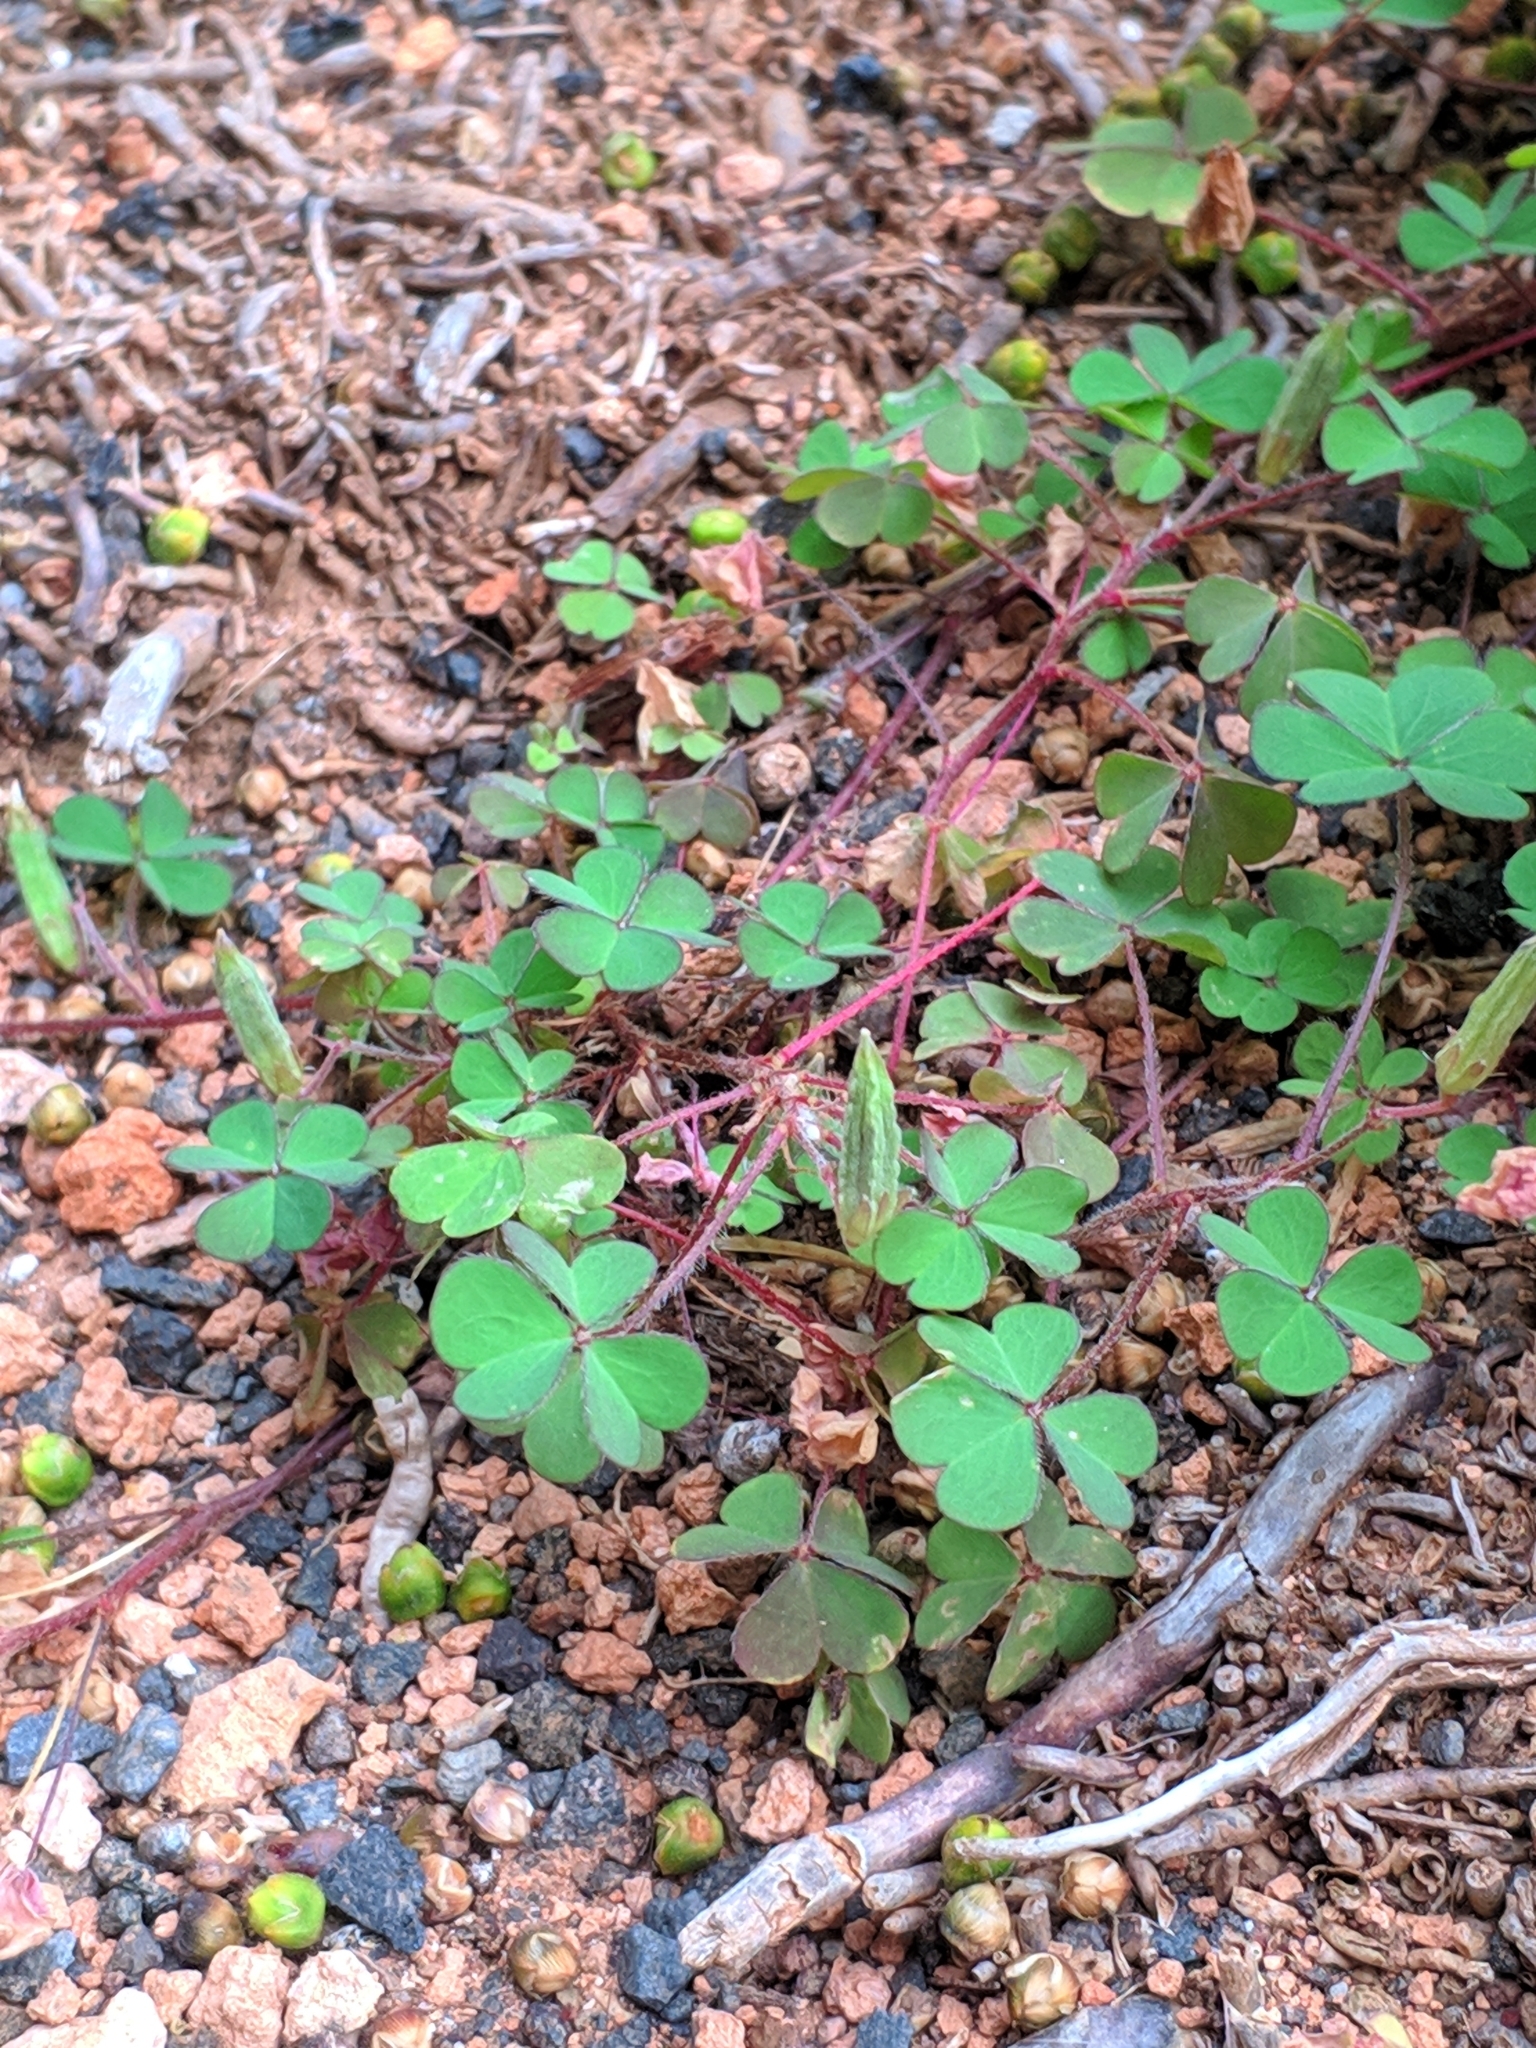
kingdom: Plantae
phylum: Tracheophyta
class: Magnoliopsida
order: Oxalidales
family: Oxalidaceae
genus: Oxalis
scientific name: Oxalis corniculata
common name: Procumbent yellow-sorrel
